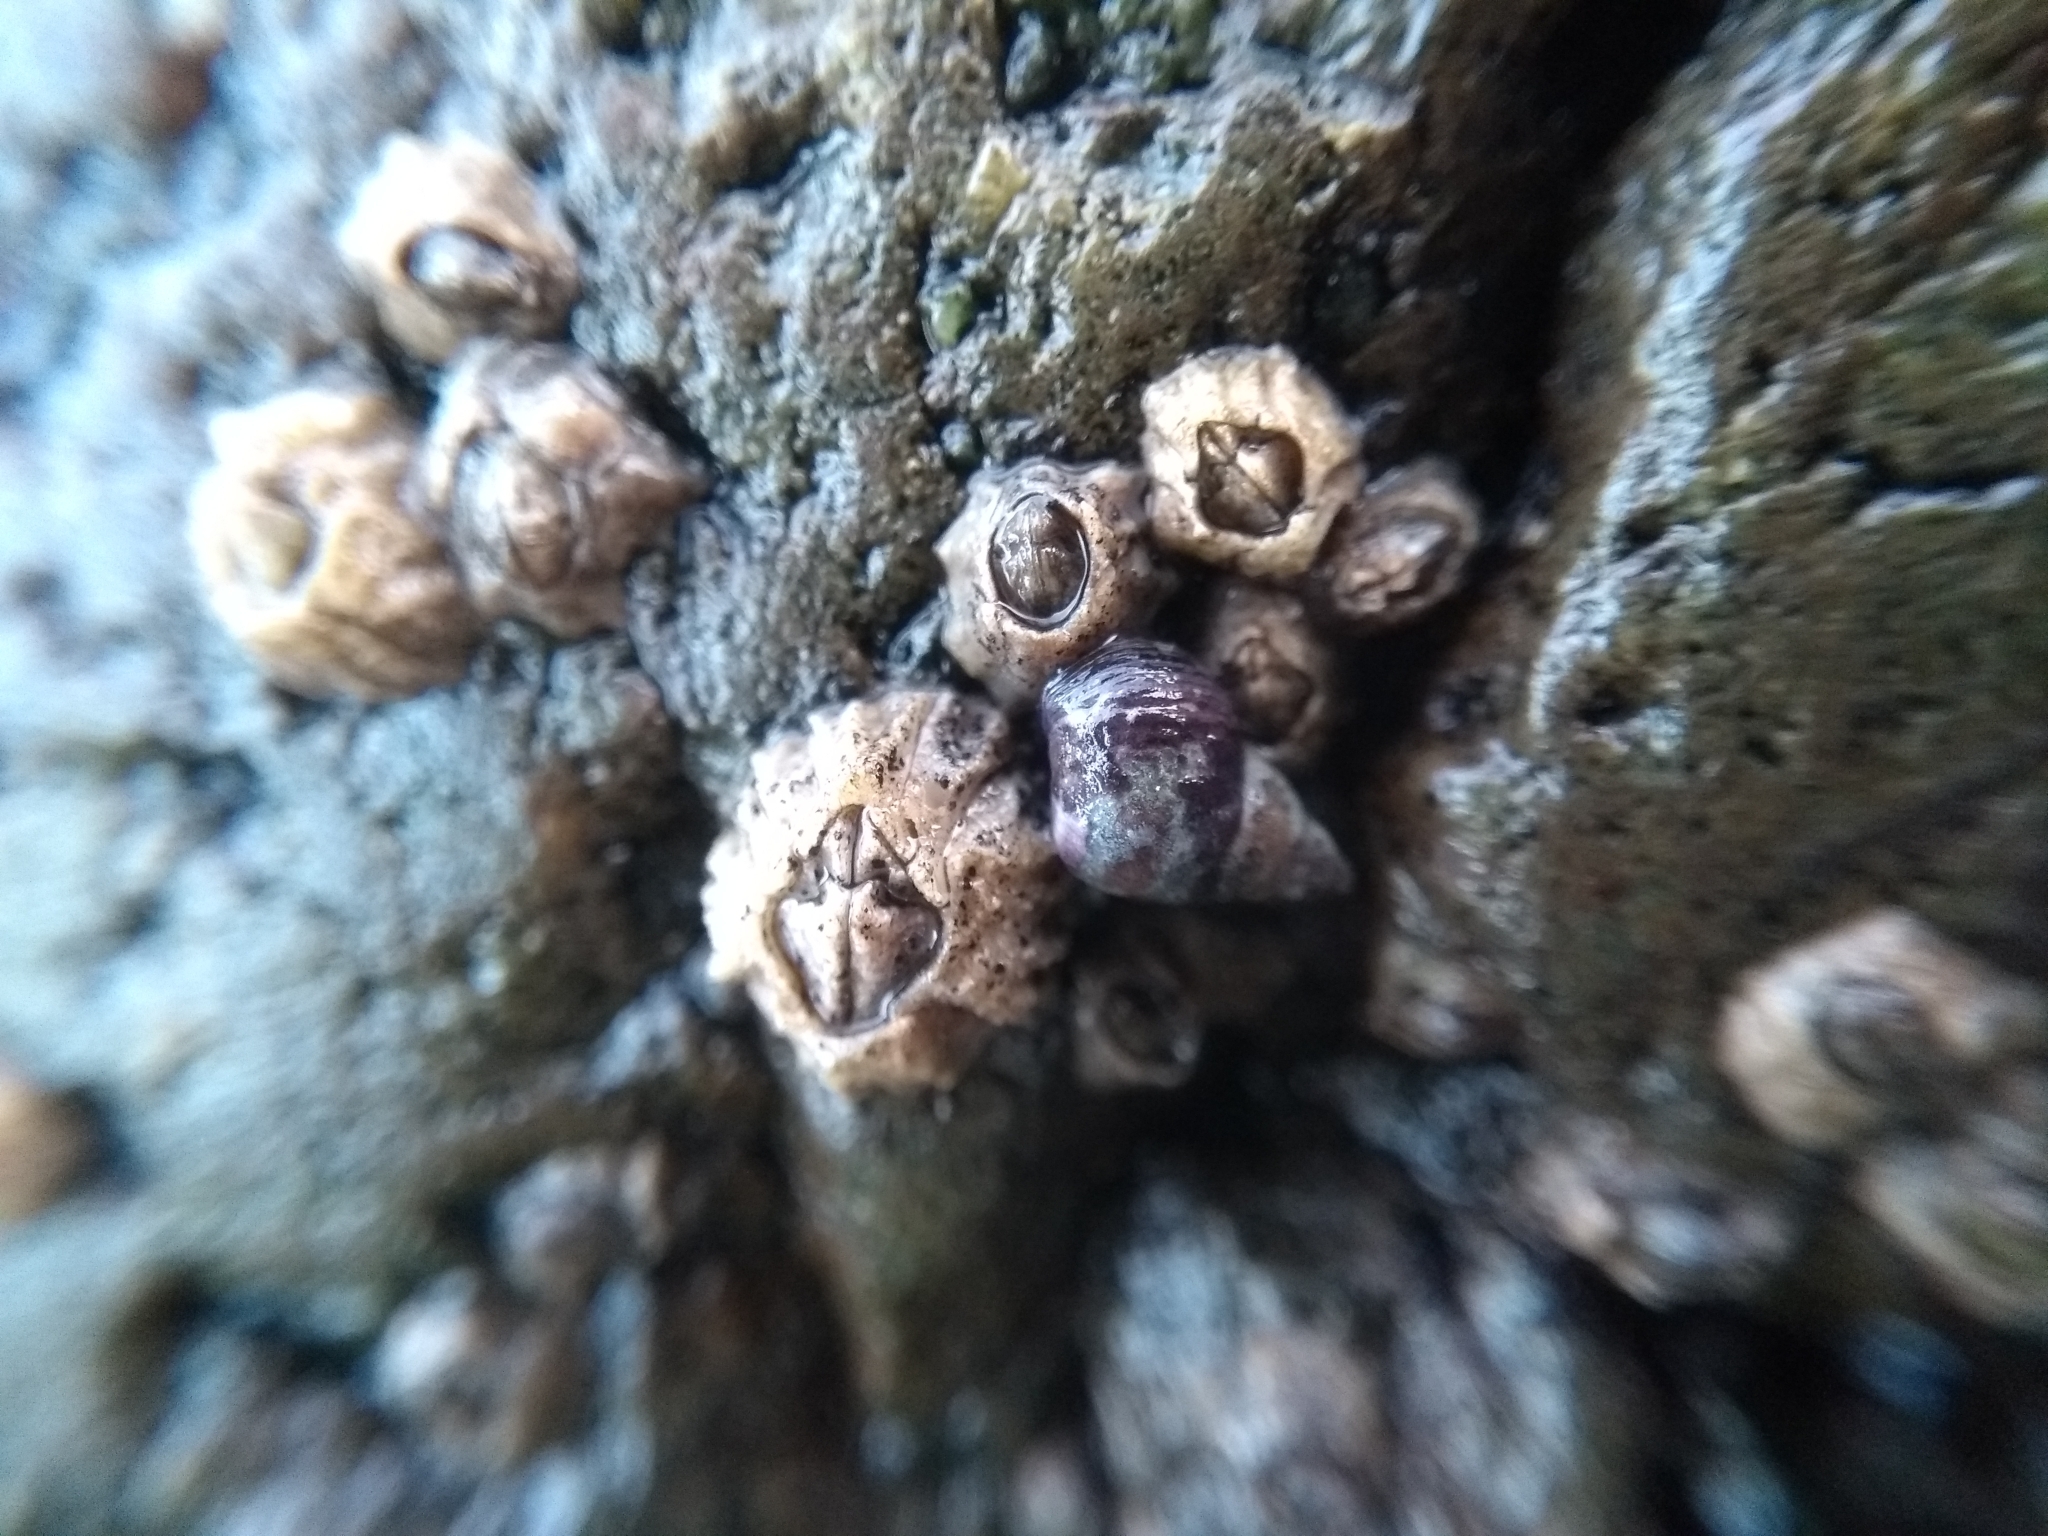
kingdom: Animalia
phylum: Arthropoda
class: Maxillopoda
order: Sessilia
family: Balanidae
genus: Balanus
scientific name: Balanus glandula
